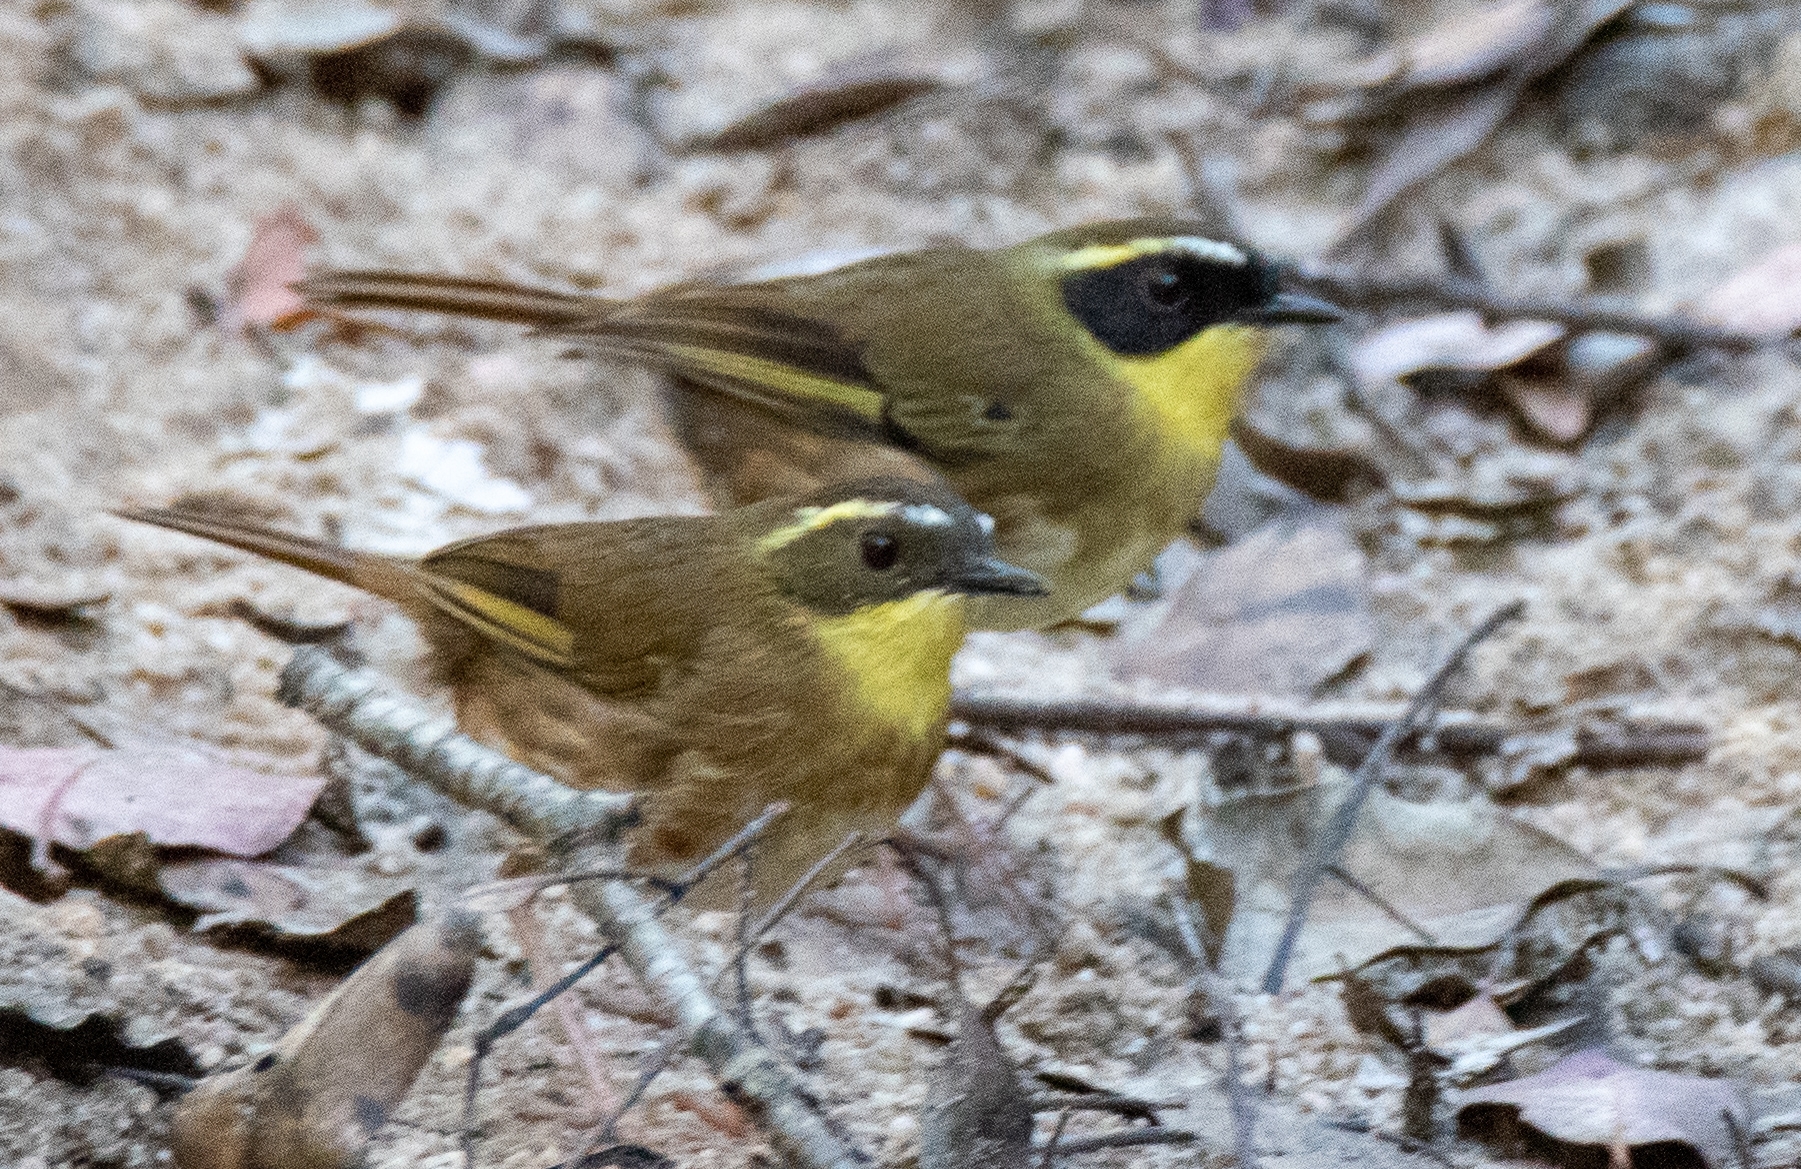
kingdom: Animalia
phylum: Chordata
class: Aves
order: Passeriformes
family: Acanthizidae
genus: Sericornis
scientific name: Sericornis citreogularis
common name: Yellow-throated scrubwren
